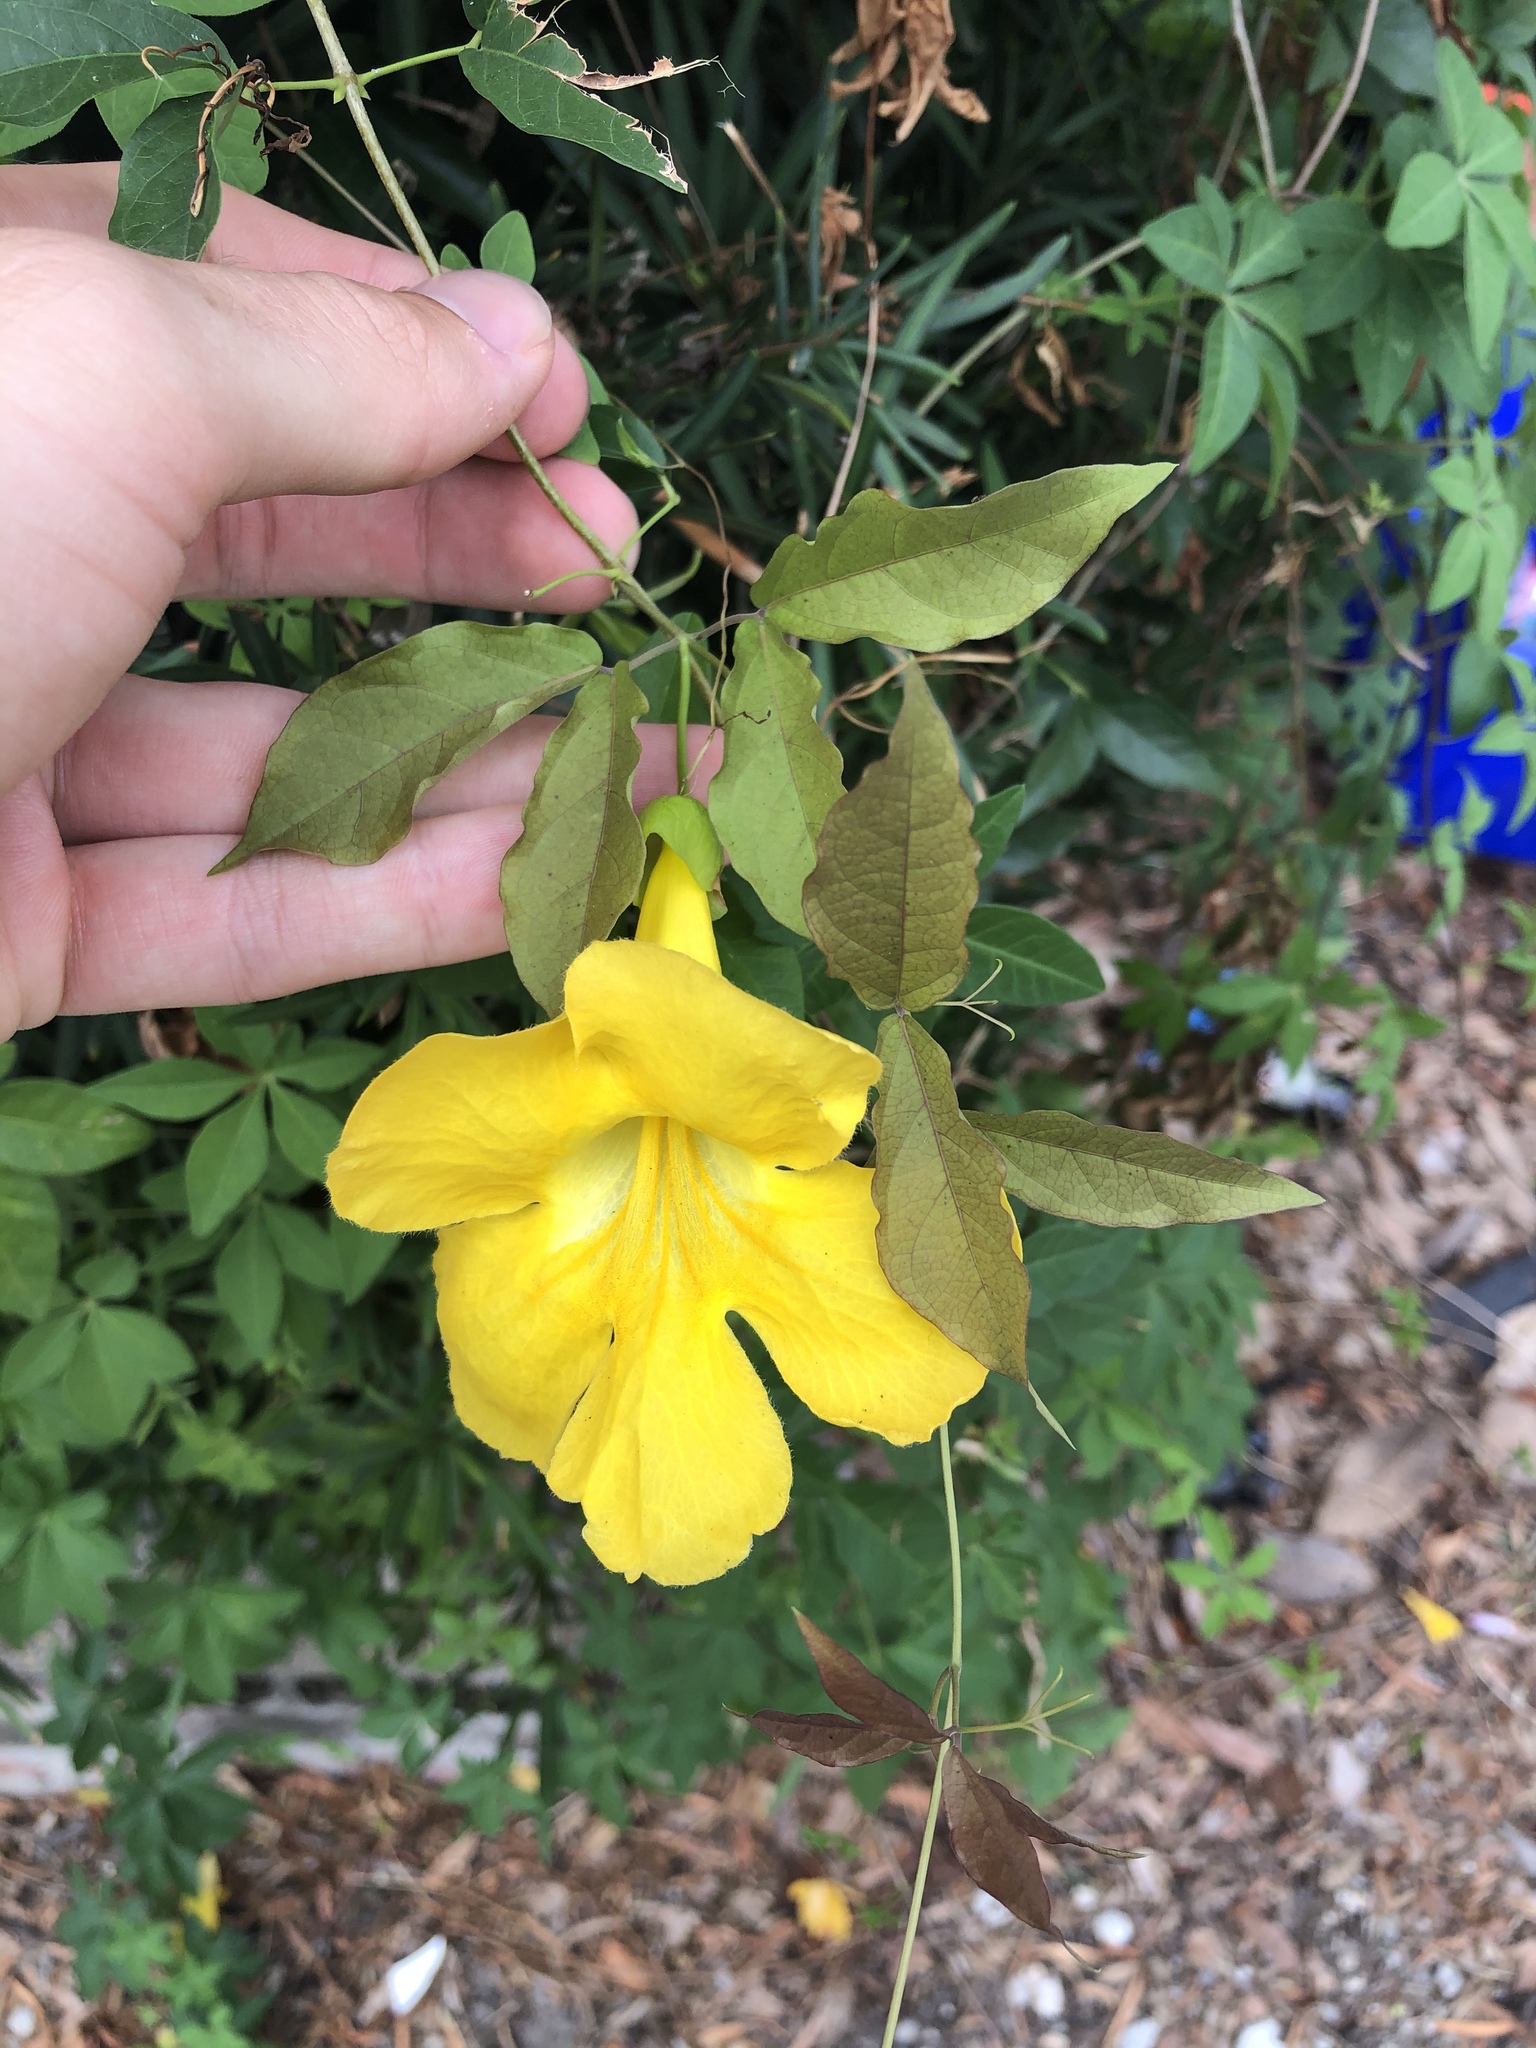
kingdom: Plantae
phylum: Tracheophyta
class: Magnoliopsida
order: Lamiales
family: Bignoniaceae
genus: Dolichandra
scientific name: Dolichandra unguis-cati
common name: Catclaw vine
